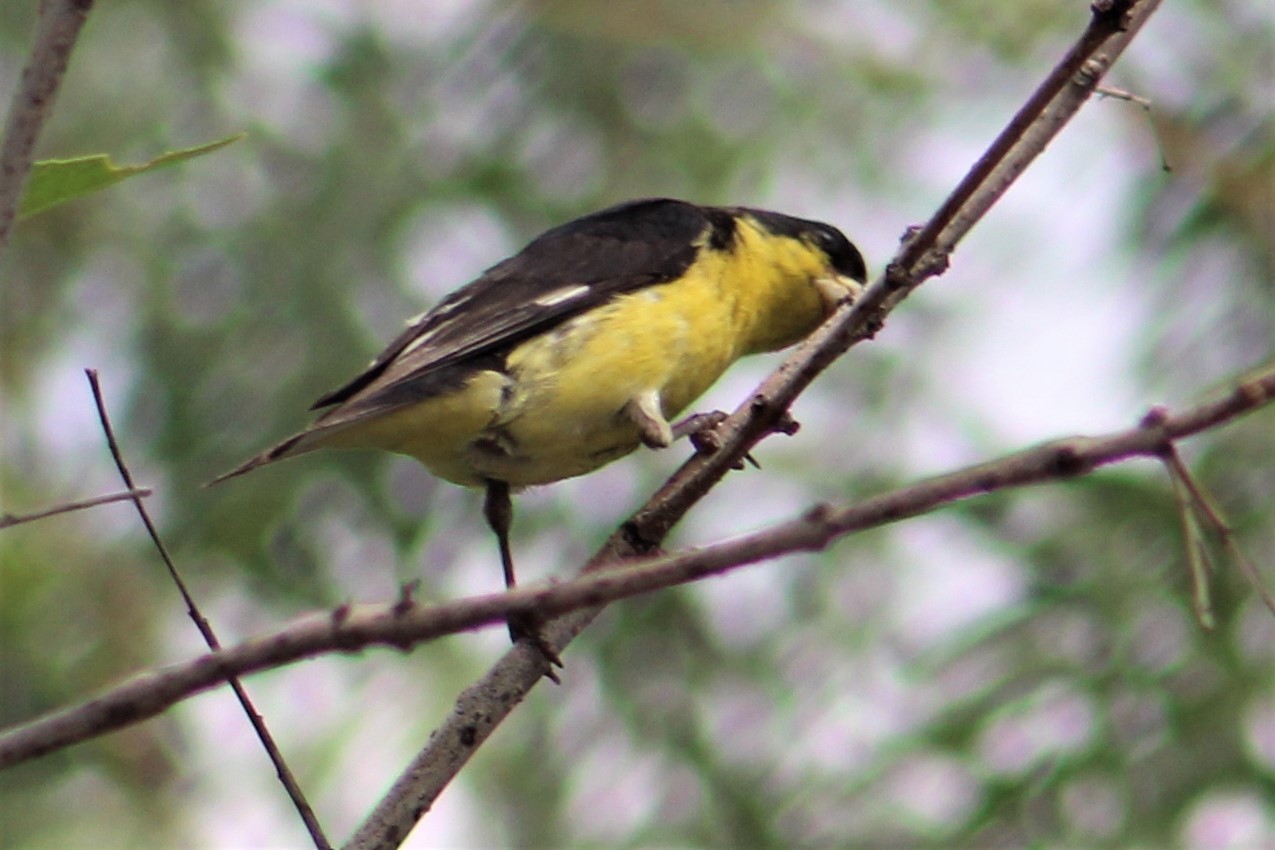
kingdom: Animalia
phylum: Chordata
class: Aves
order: Passeriformes
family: Fringillidae
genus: Spinus
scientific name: Spinus psaltria
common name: Lesser goldfinch
